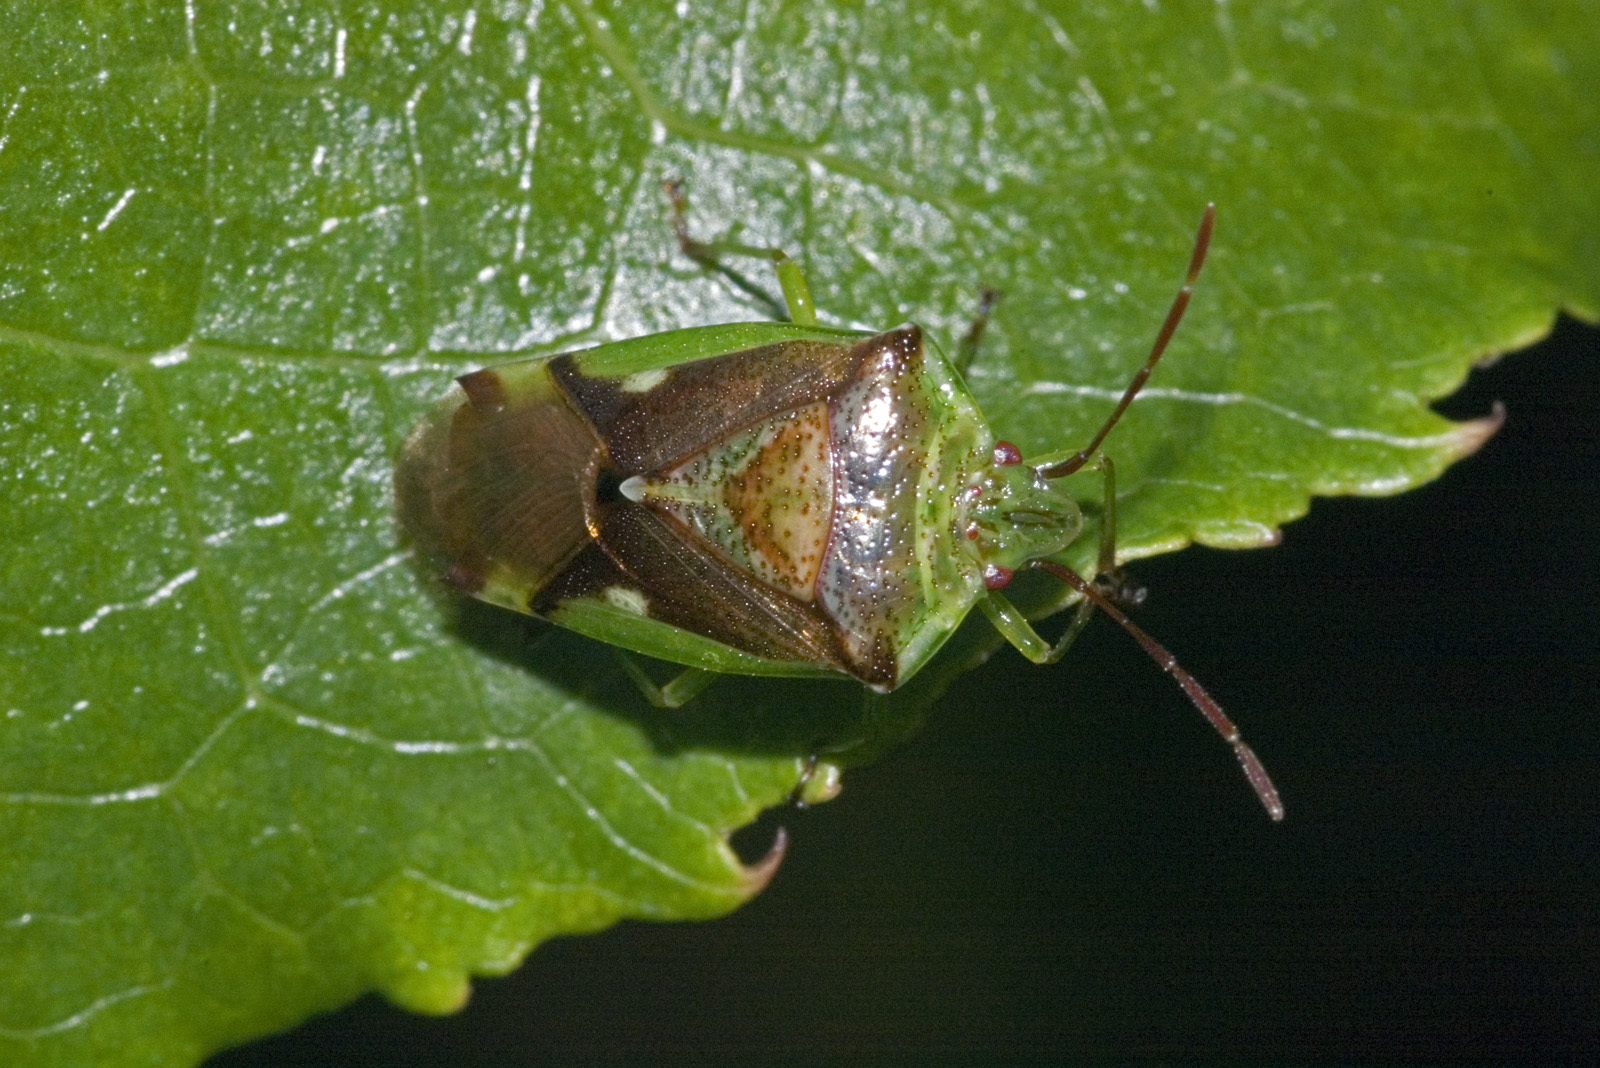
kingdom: Animalia
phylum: Arthropoda
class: Insecta
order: Hemiptera
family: Acanthosomatidae
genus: Oncacontias
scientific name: Oncacontias vittatus
